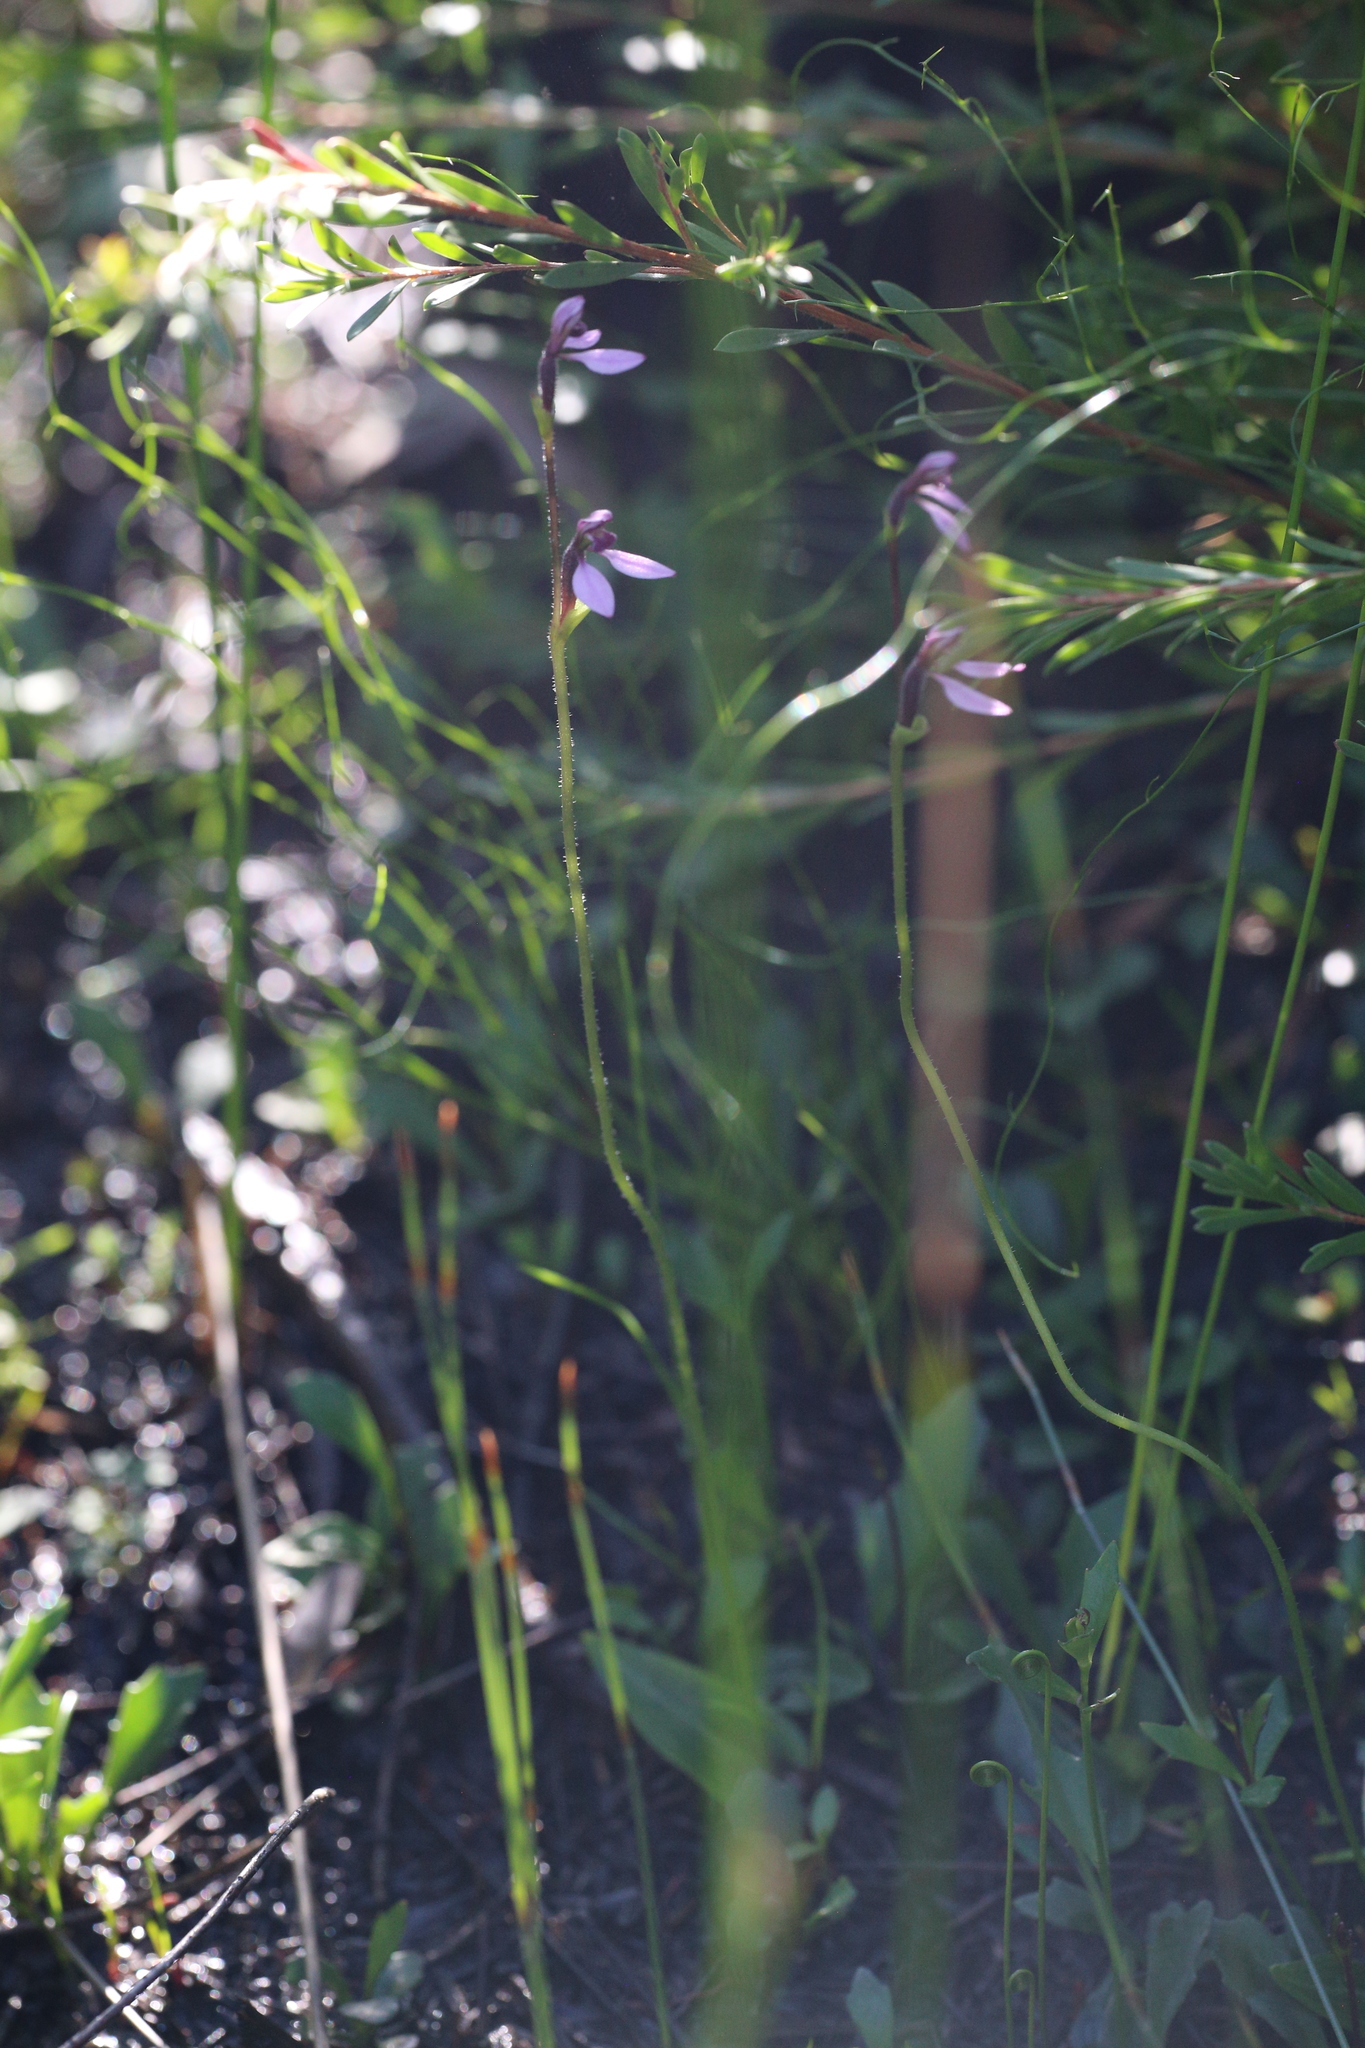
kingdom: Plantae
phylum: Tracheophyta
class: Liliopsida
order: Asparagales
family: Orchidaceae
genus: Eriochilus
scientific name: Eriochilus scaber
